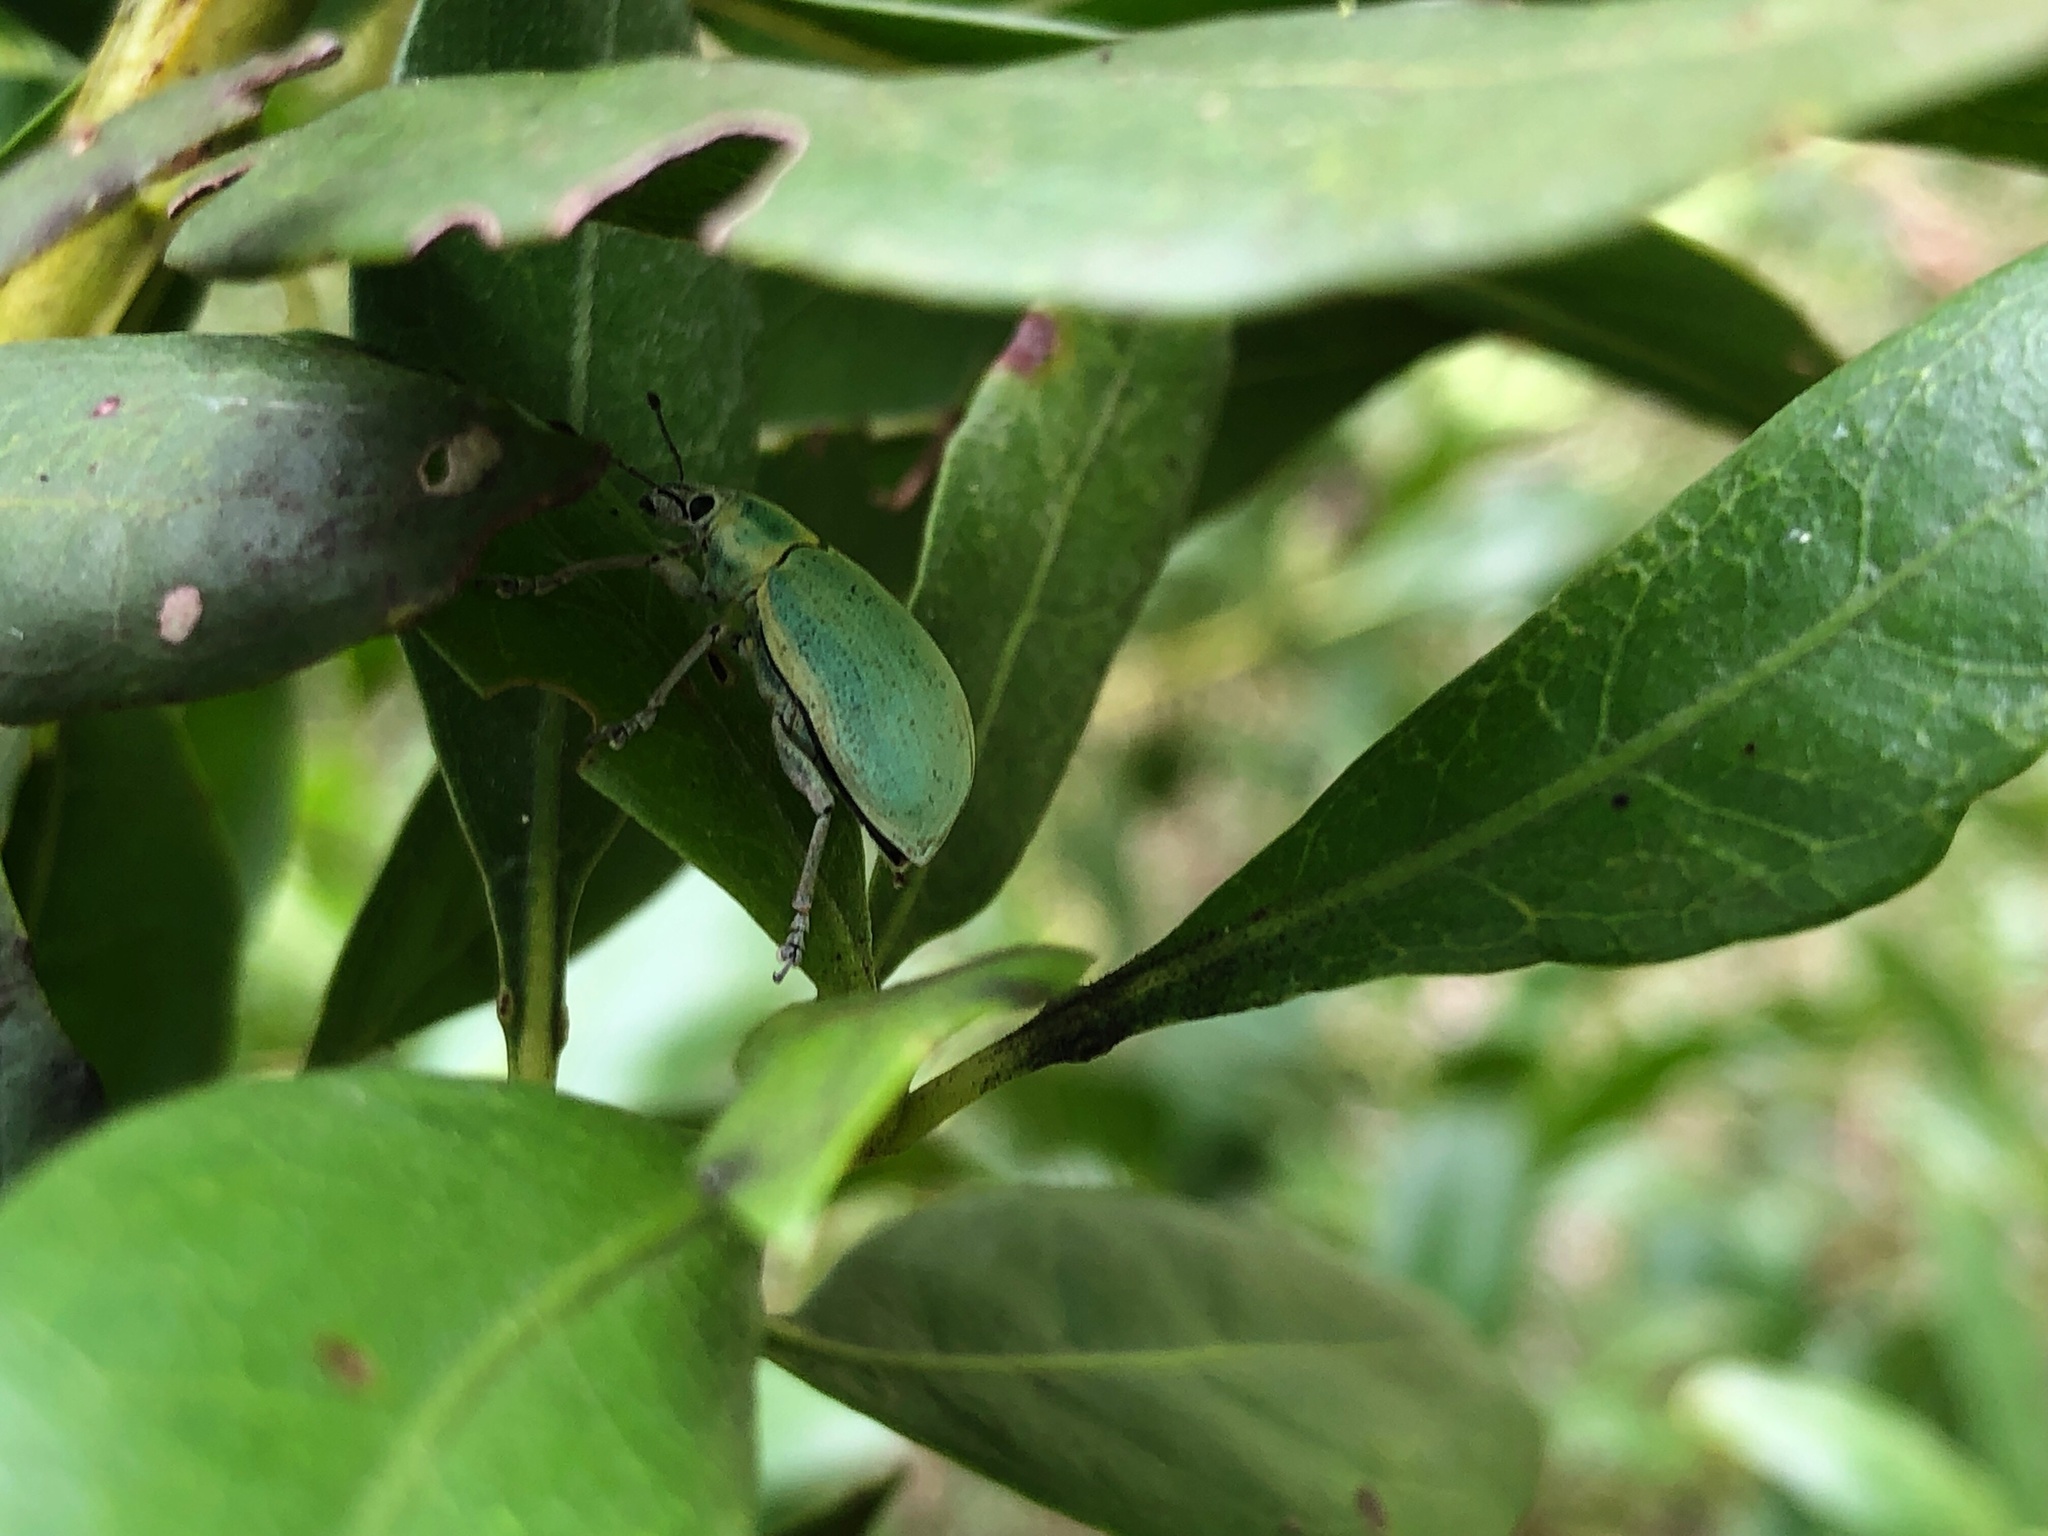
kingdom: Animalia
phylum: Arthropoda
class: Insecta
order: Coleoptera
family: Curculionidae
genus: Pachnaeus
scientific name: Pachnaeus litus
